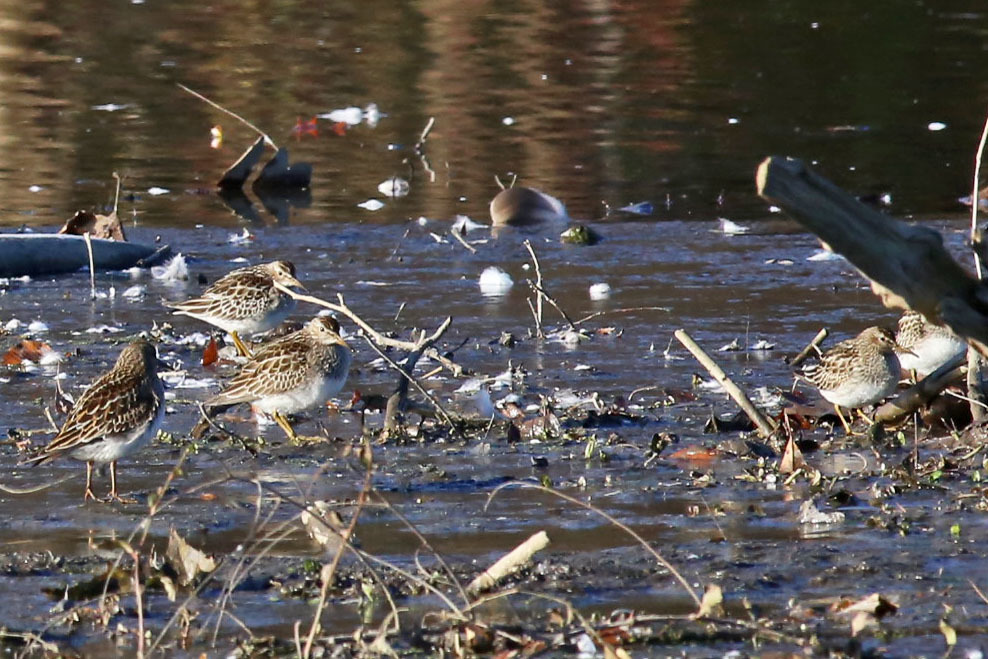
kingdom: Animalia
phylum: Chordata
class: Aves
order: Charadriiformes
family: Scolopacidae
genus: Calidris
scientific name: Calidris melanotos
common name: Pectoral sandpiper
